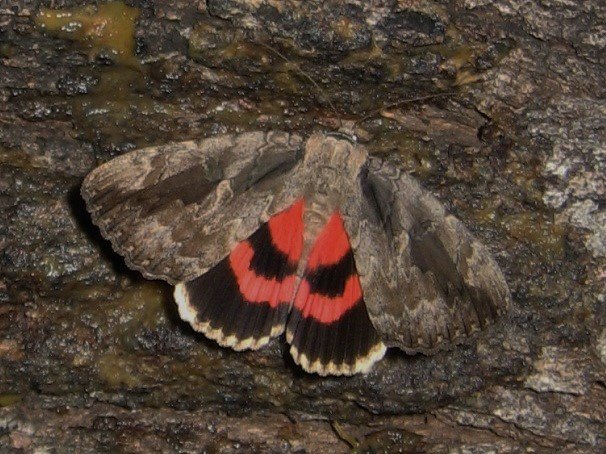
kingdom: Animalia
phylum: Arthropoda
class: Insecta
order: Lepidoptera
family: Erebidae
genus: Catocala
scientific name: Catocala amatrix
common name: Sweetheart underwing
